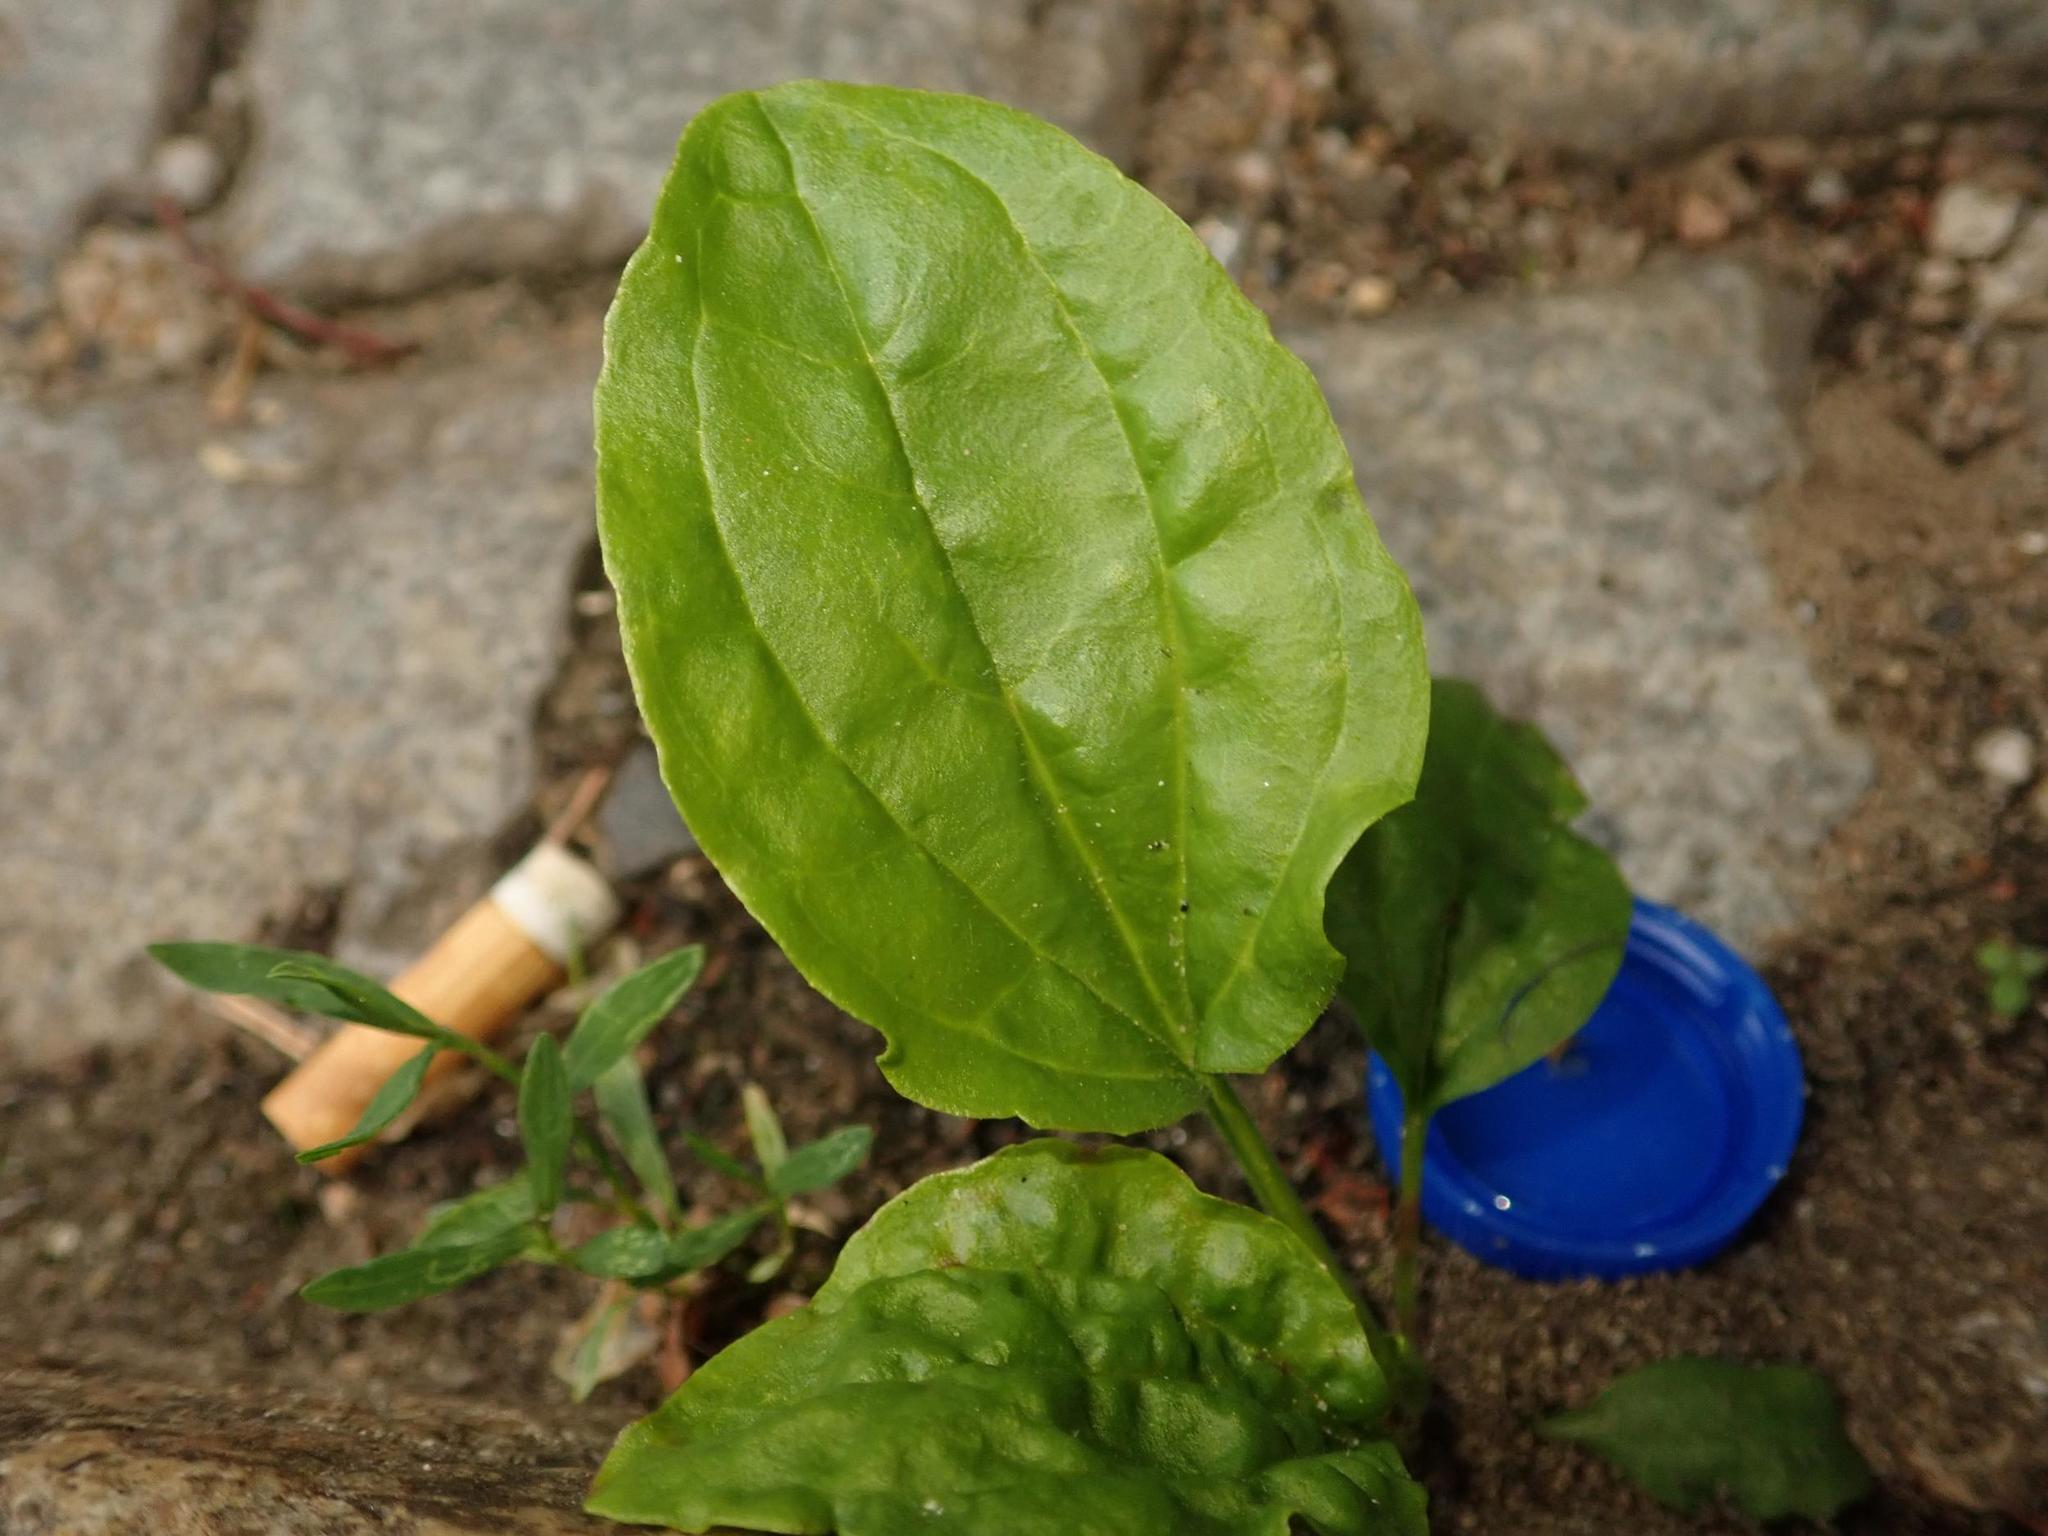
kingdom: Plantae
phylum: Tracheophyta
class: Magnoliopsida
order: Lamiales
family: Plantaginaceae
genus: Plantago
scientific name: Plantago major
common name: Common plantain
